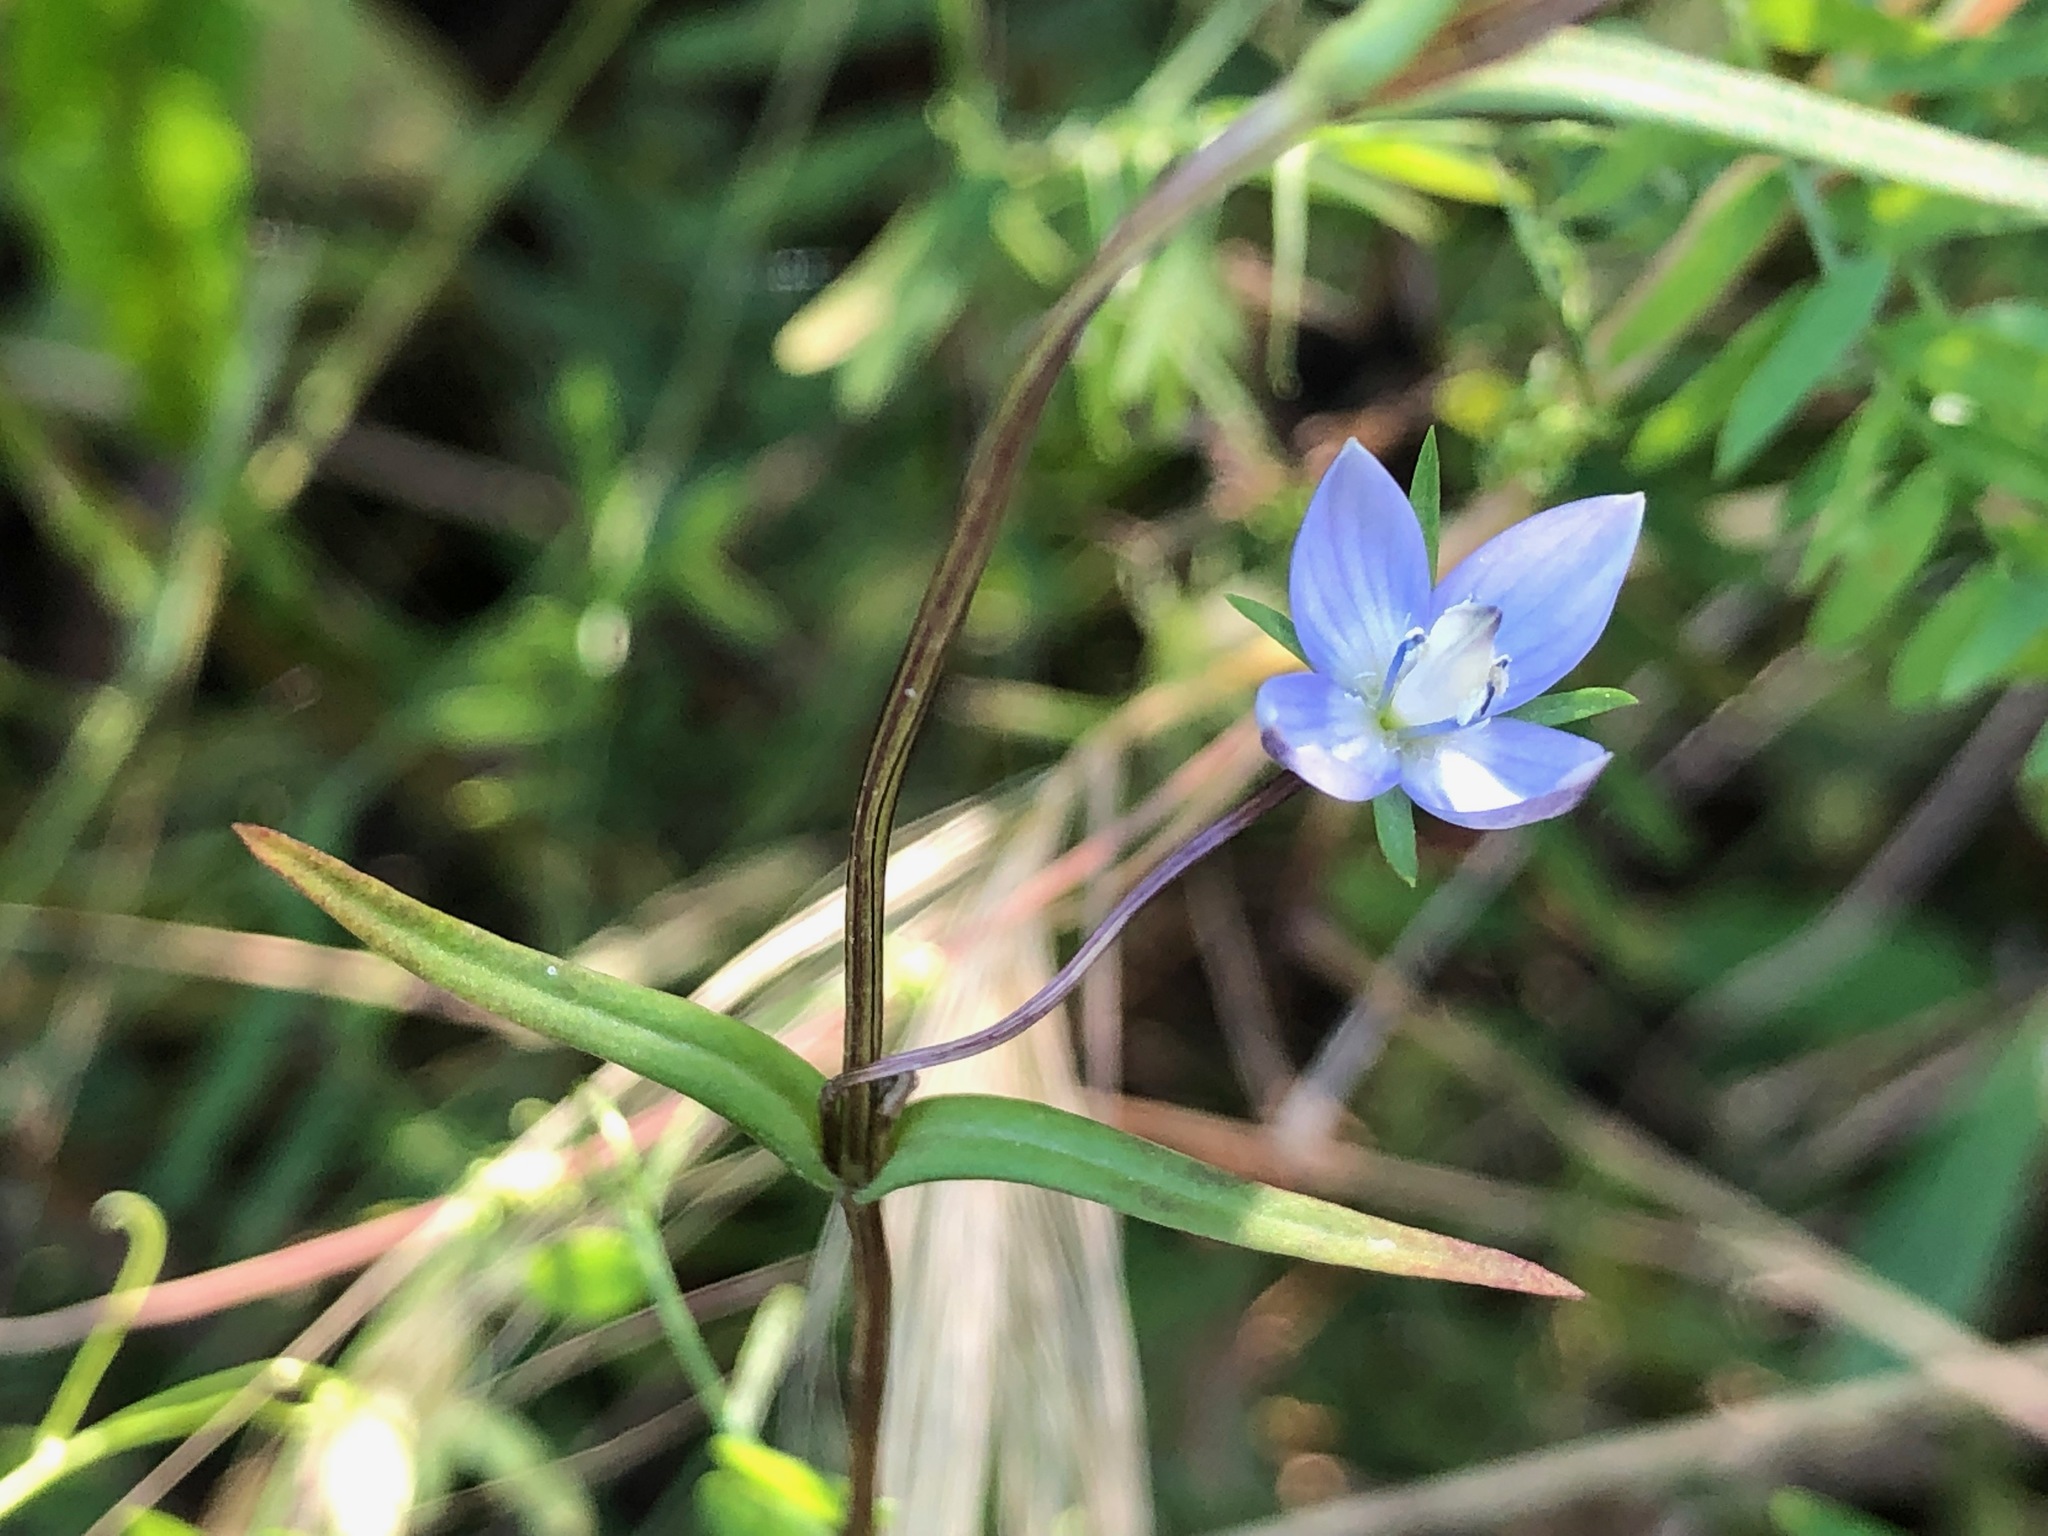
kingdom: Plantae
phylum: Tracheophyta
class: Magnoliopsida
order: Gentianales
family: Gentianaceae
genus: Lomatogonium
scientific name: Lomatogonium rotatum
